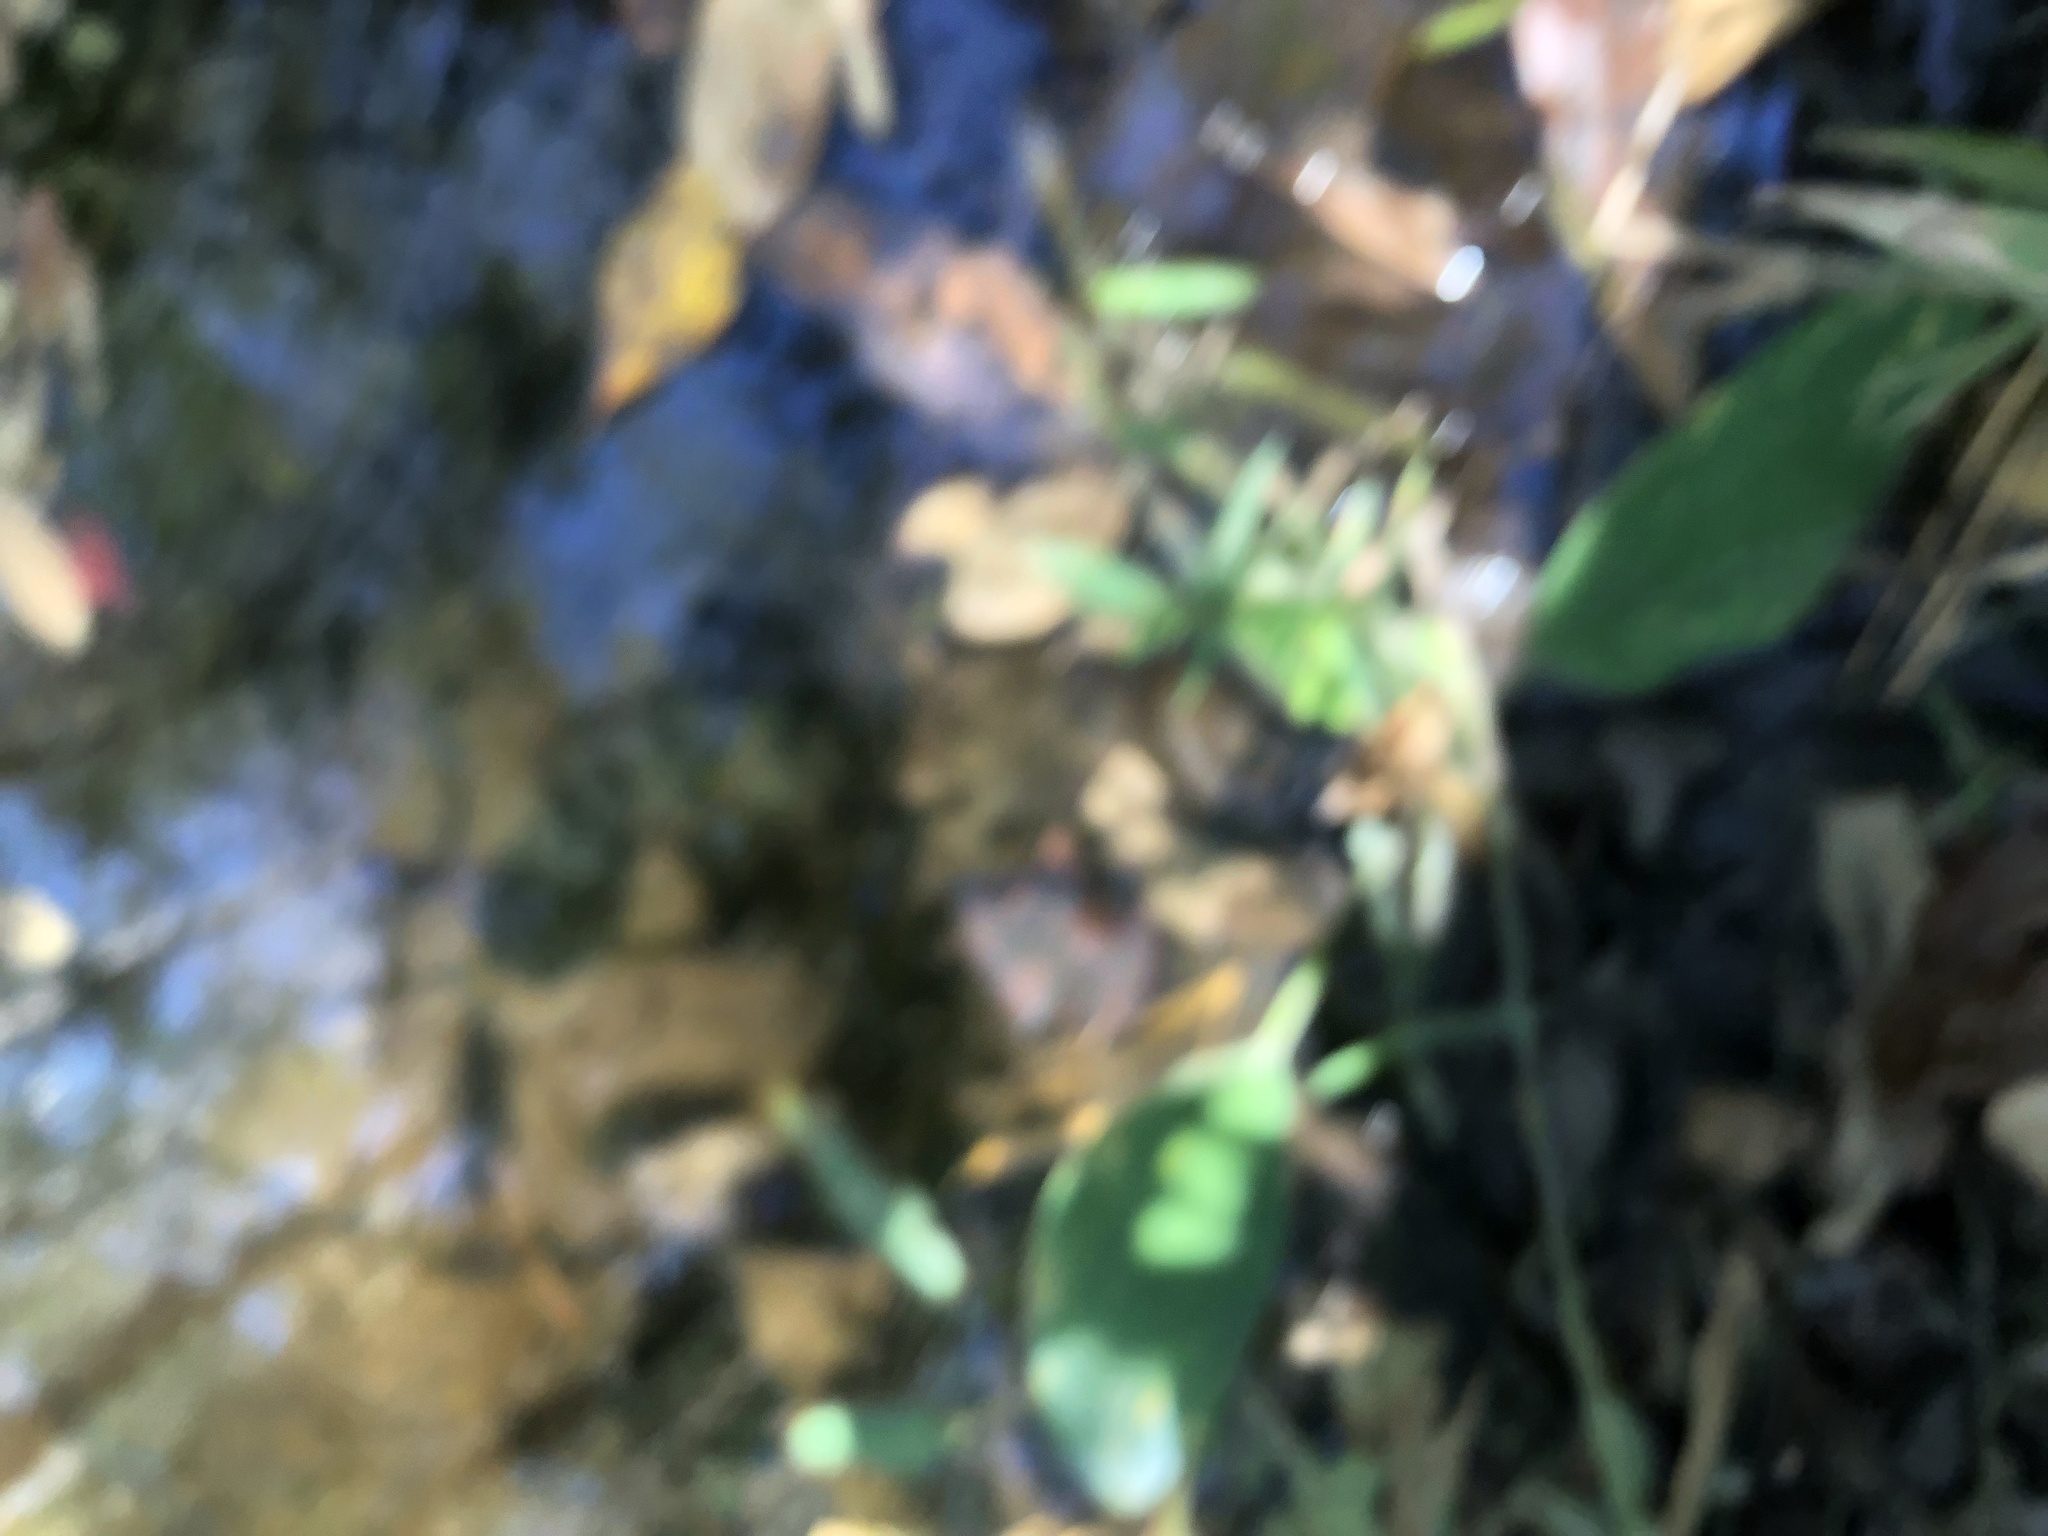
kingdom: Plantae
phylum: Tracheophyta
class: Liliopsida
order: Asparagales
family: Orchidaceae
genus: Spiranthes
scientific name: Spiranthes odorata
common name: Marsh ladies'-tresses
